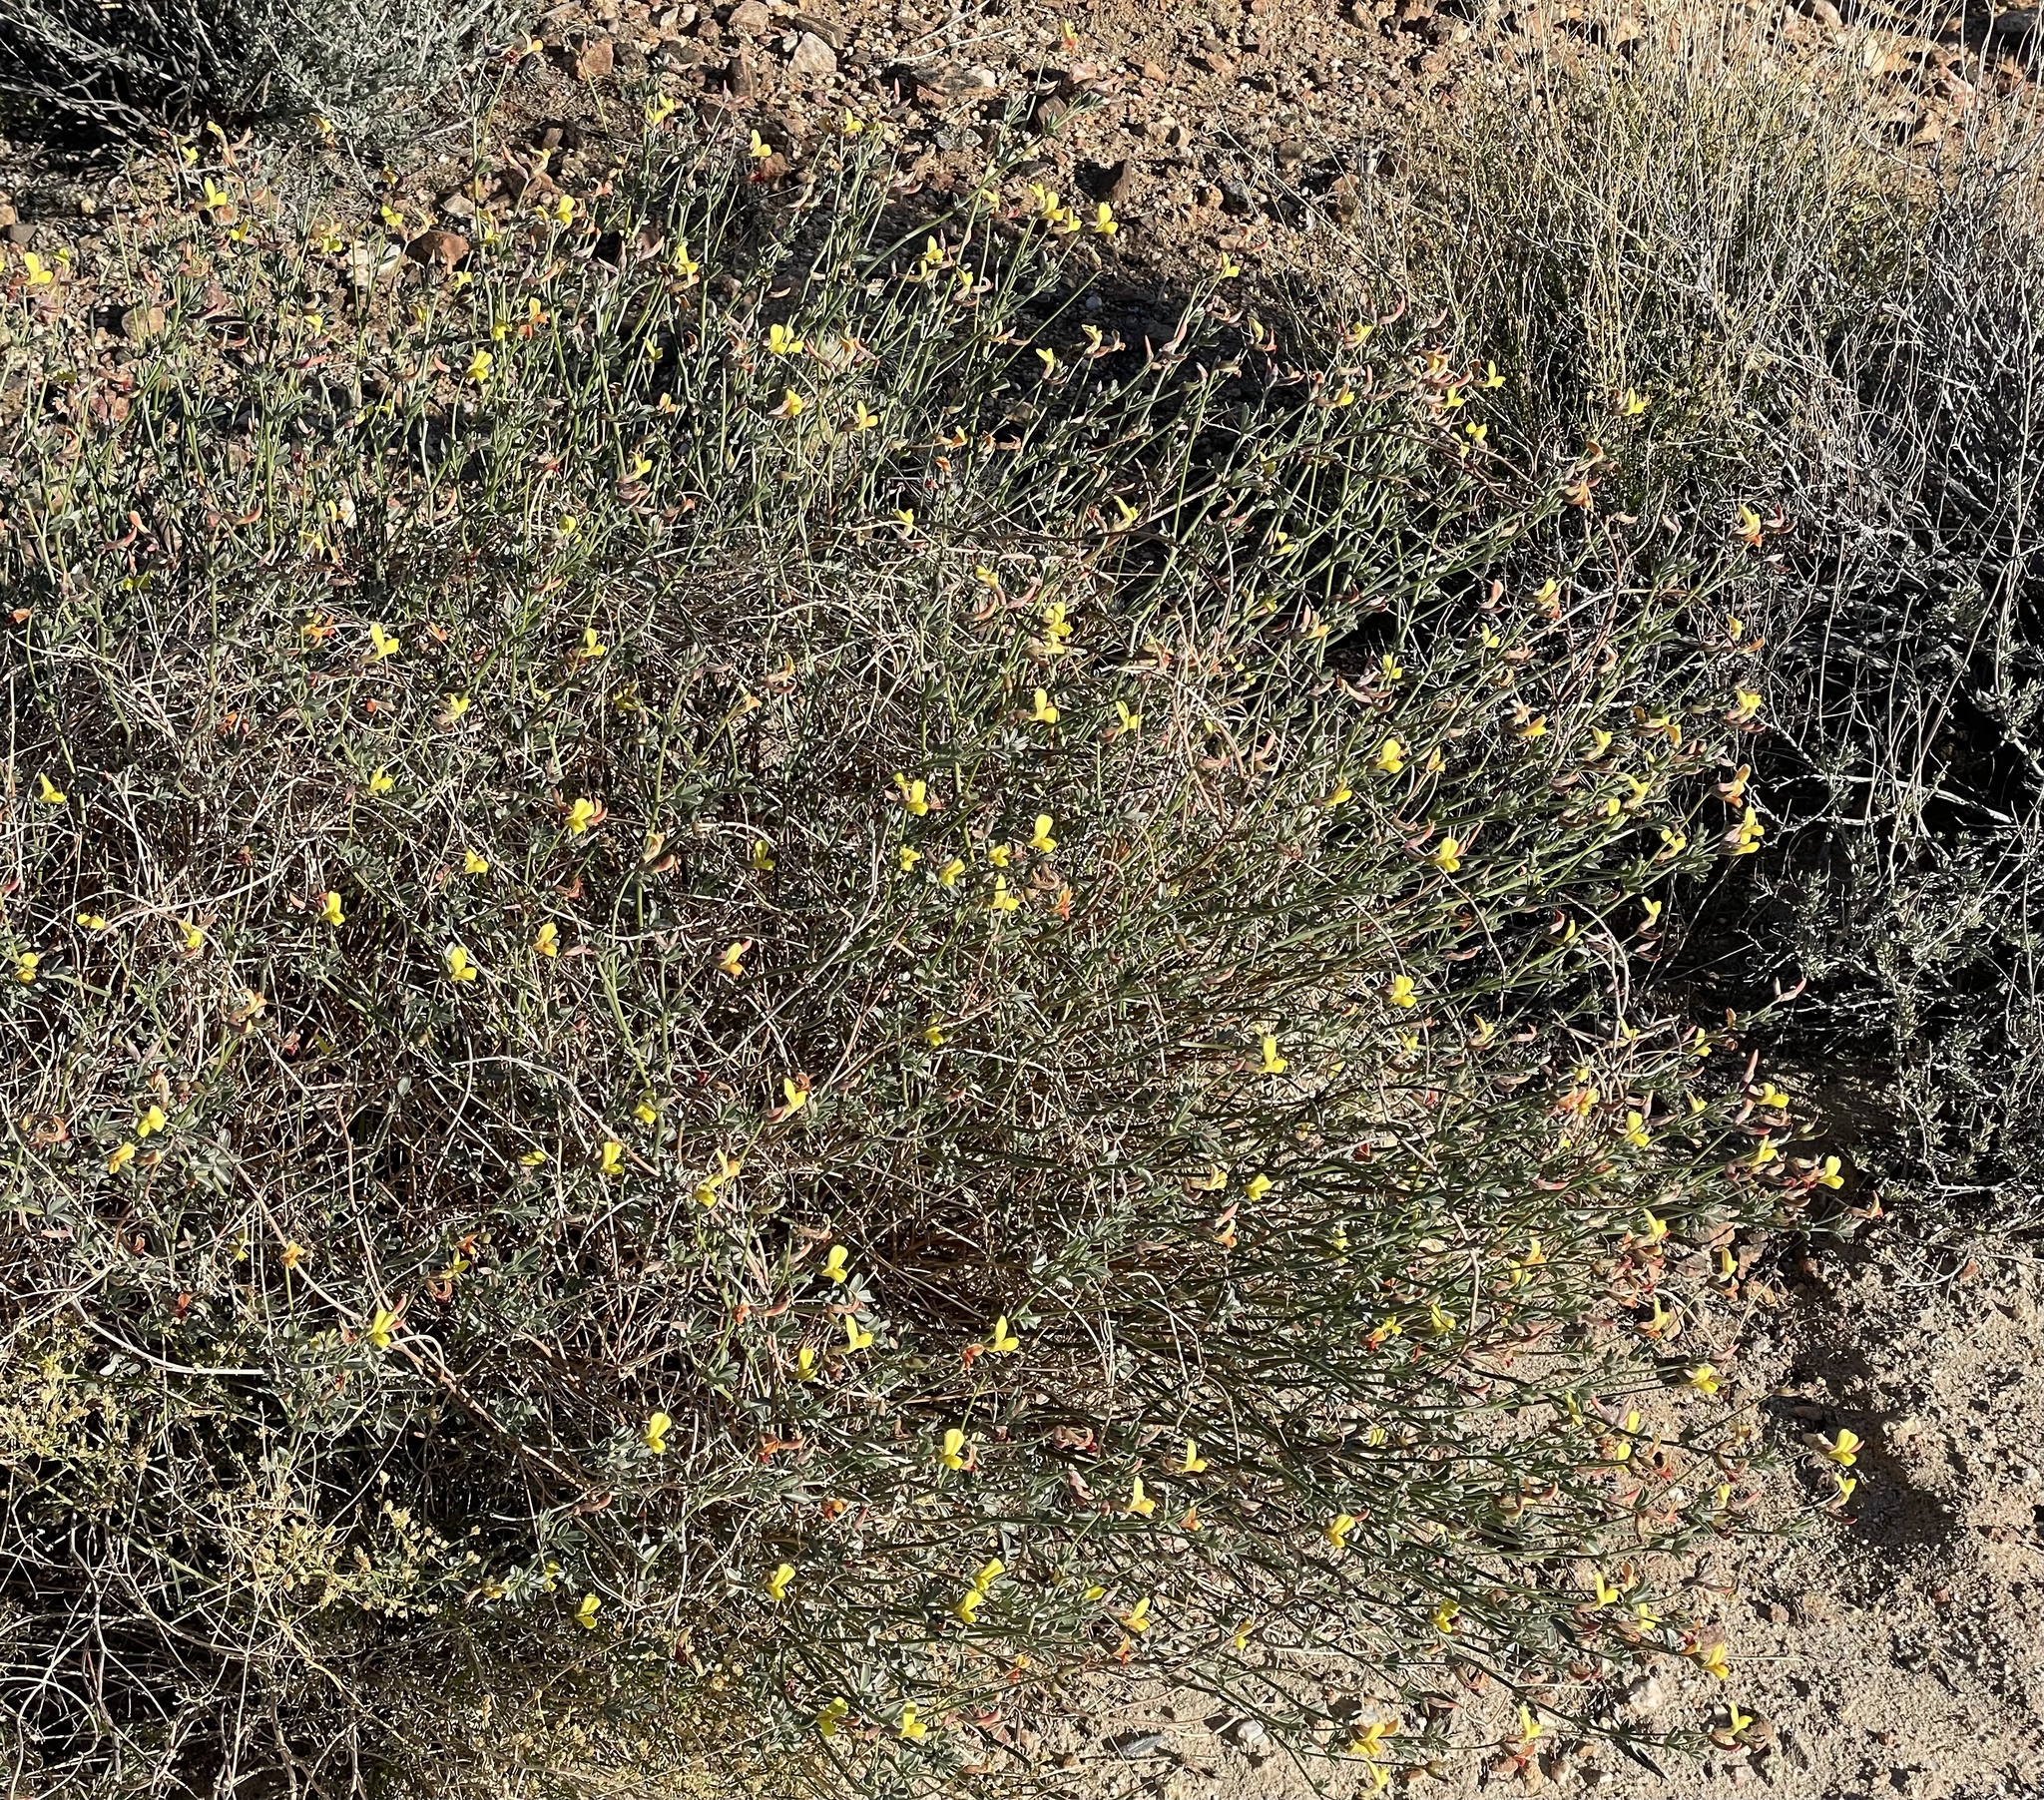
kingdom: Plantae
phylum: Tracheophyta
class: Magnoliopsida
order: Fabales
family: Fabaceae
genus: Acmispon
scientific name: Acmispon rigidus
